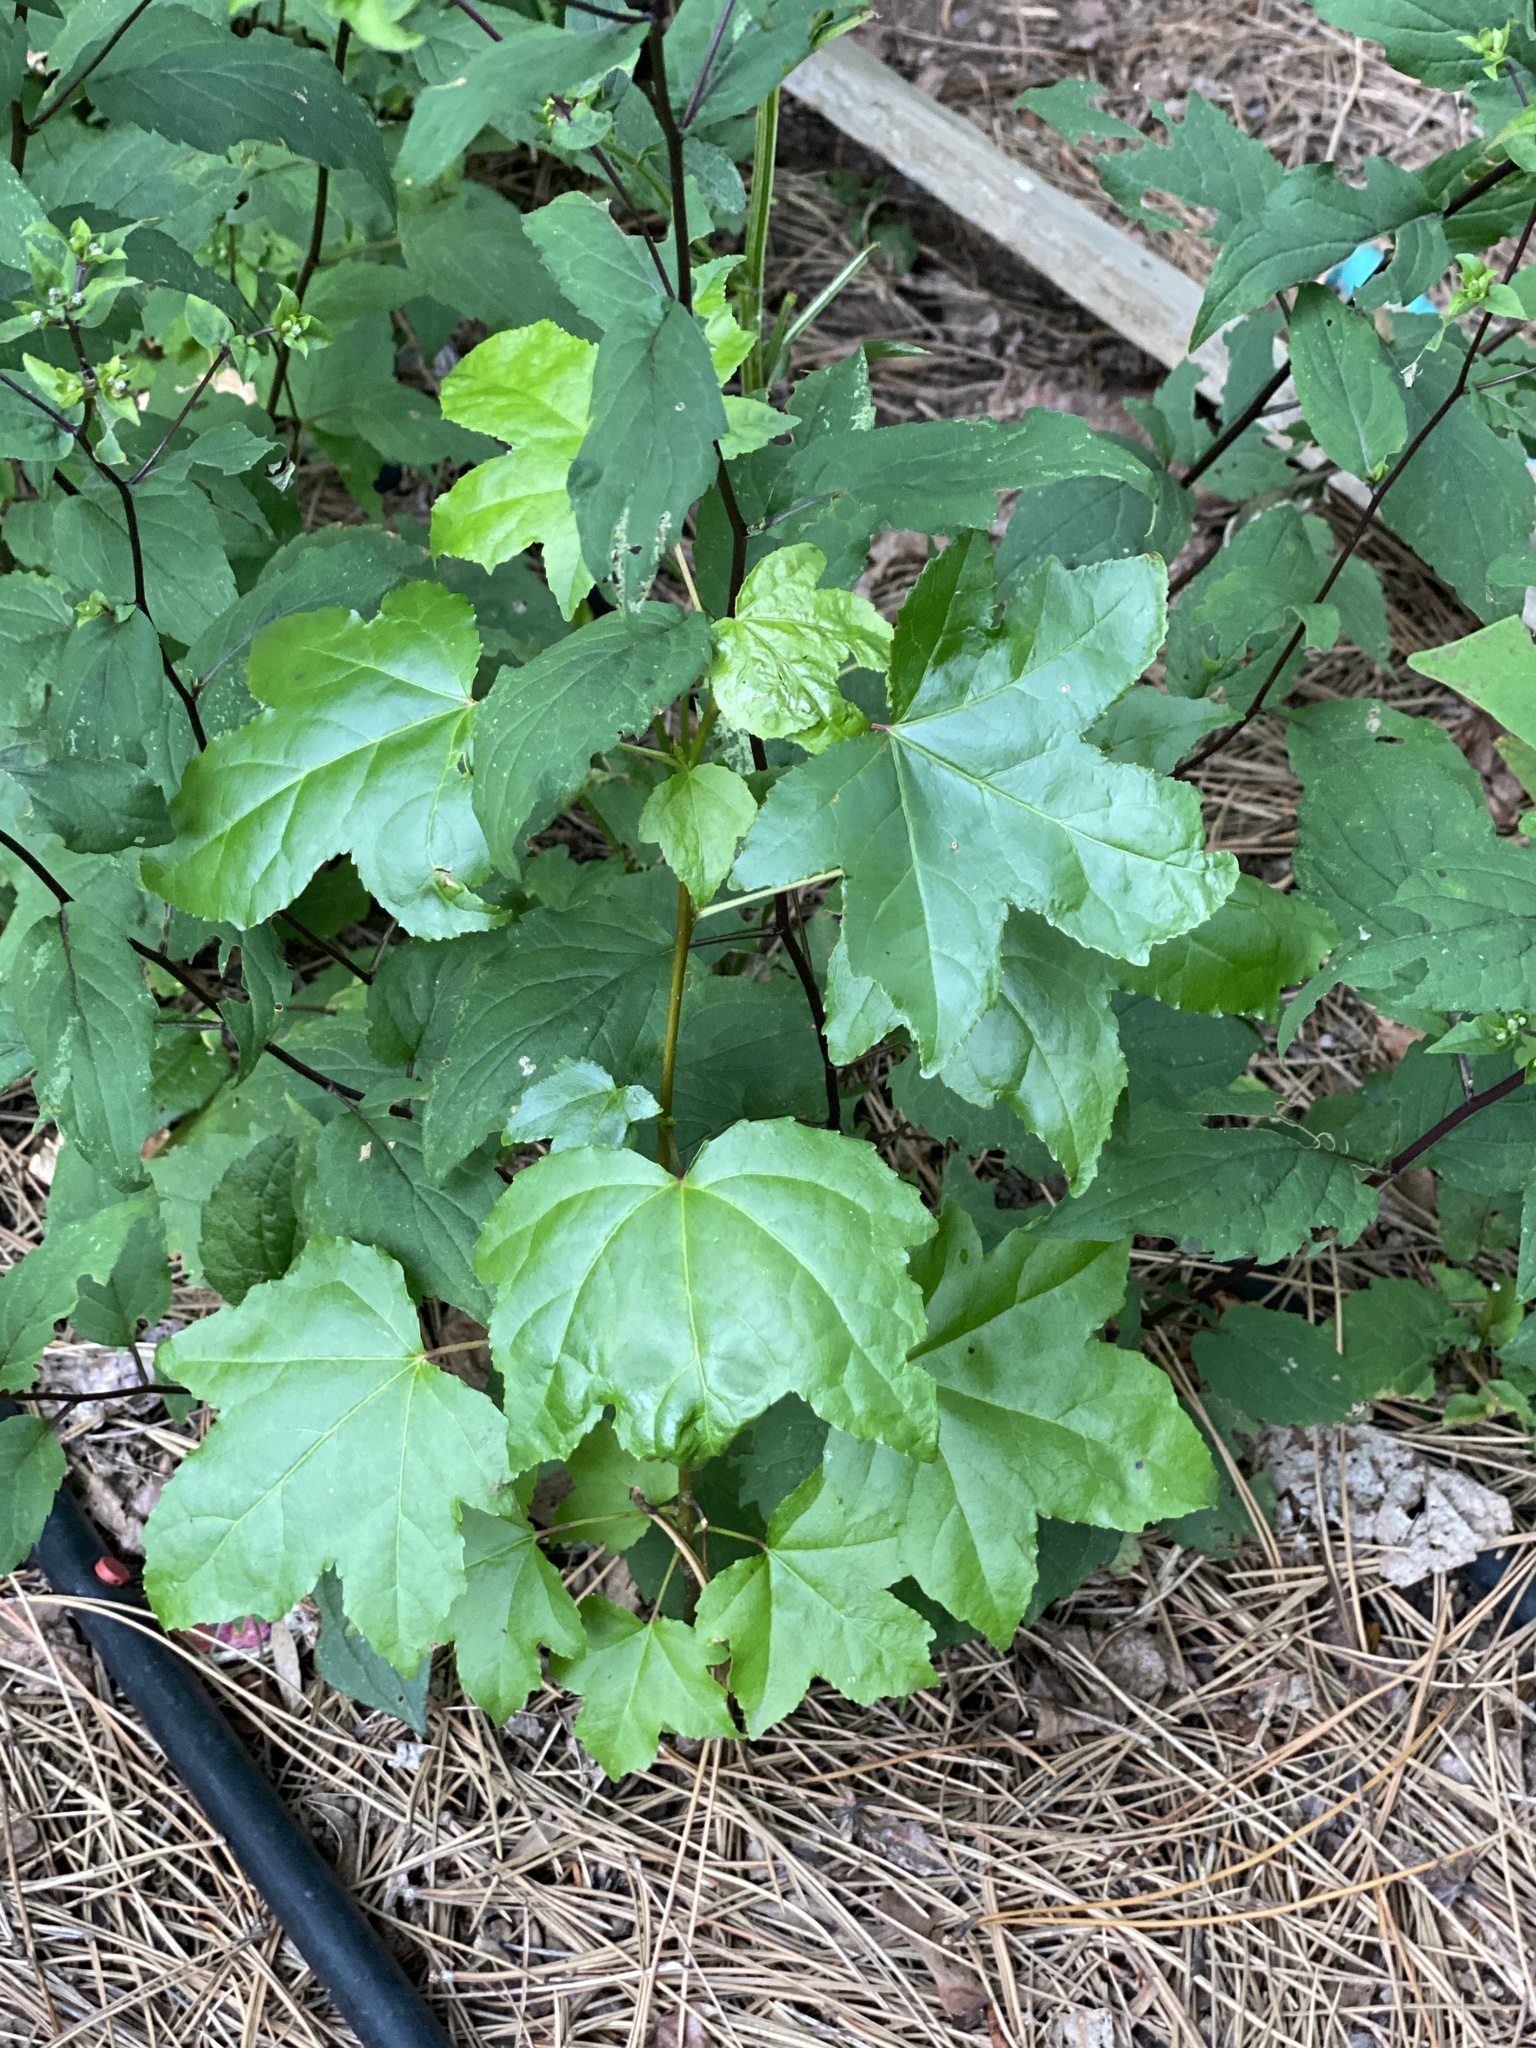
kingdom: Plantae
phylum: Tracheophyta
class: Magnoliopsida
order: Saxifragales
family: Altingiaceae
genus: Liquidambar
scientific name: Liquidambar styraciflua
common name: Sweet gum
